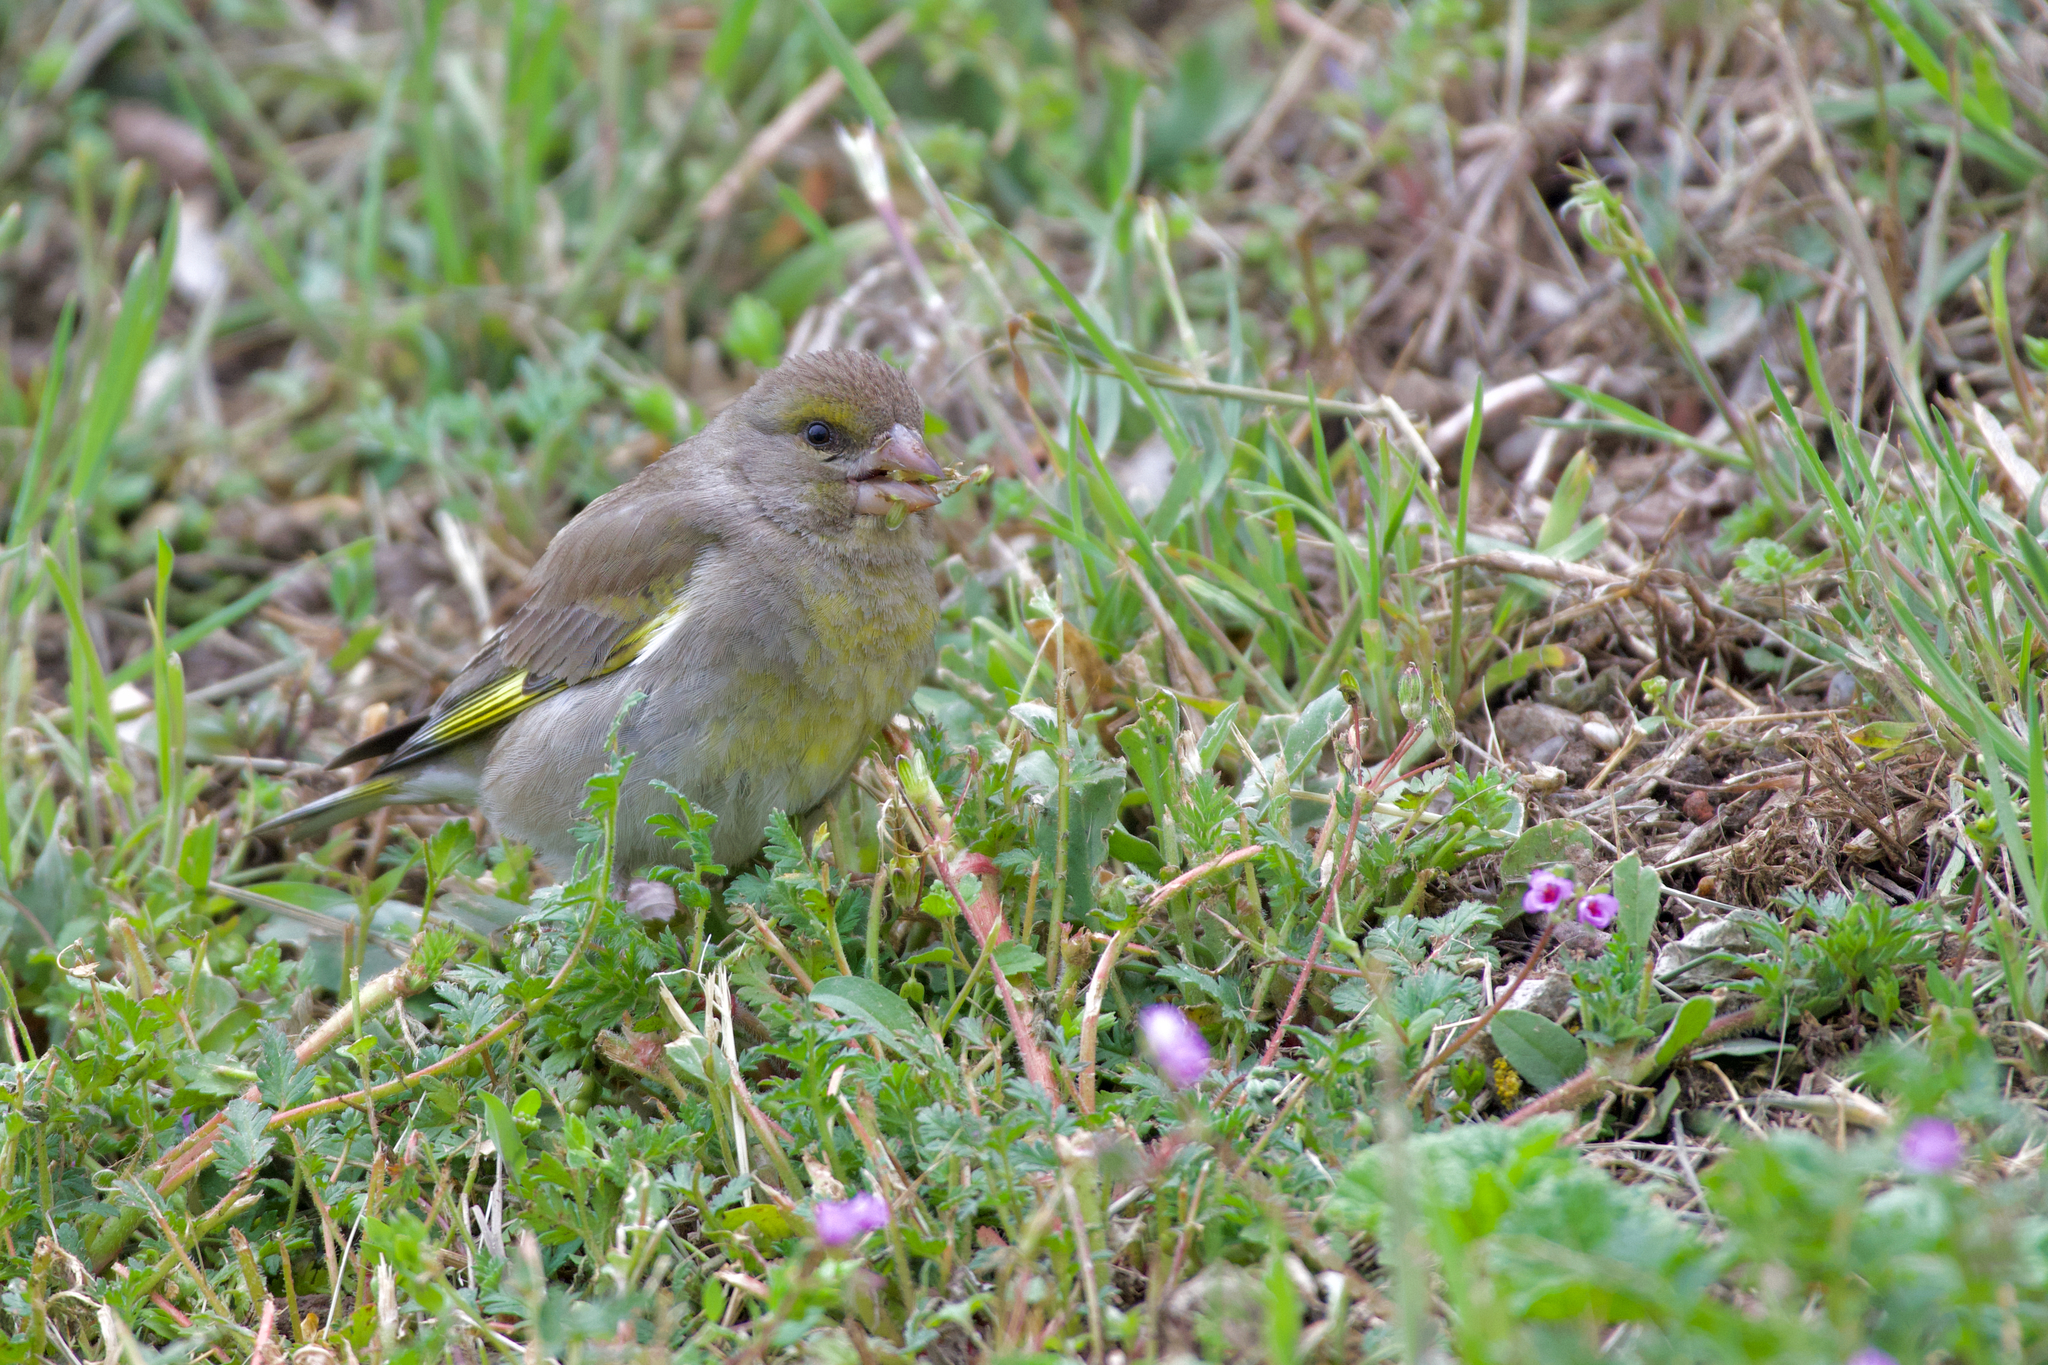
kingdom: Plantae
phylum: Tracheophyta
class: Liliopsida
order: Poales
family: Poaceae
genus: Chloris
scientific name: Chloris chloris
